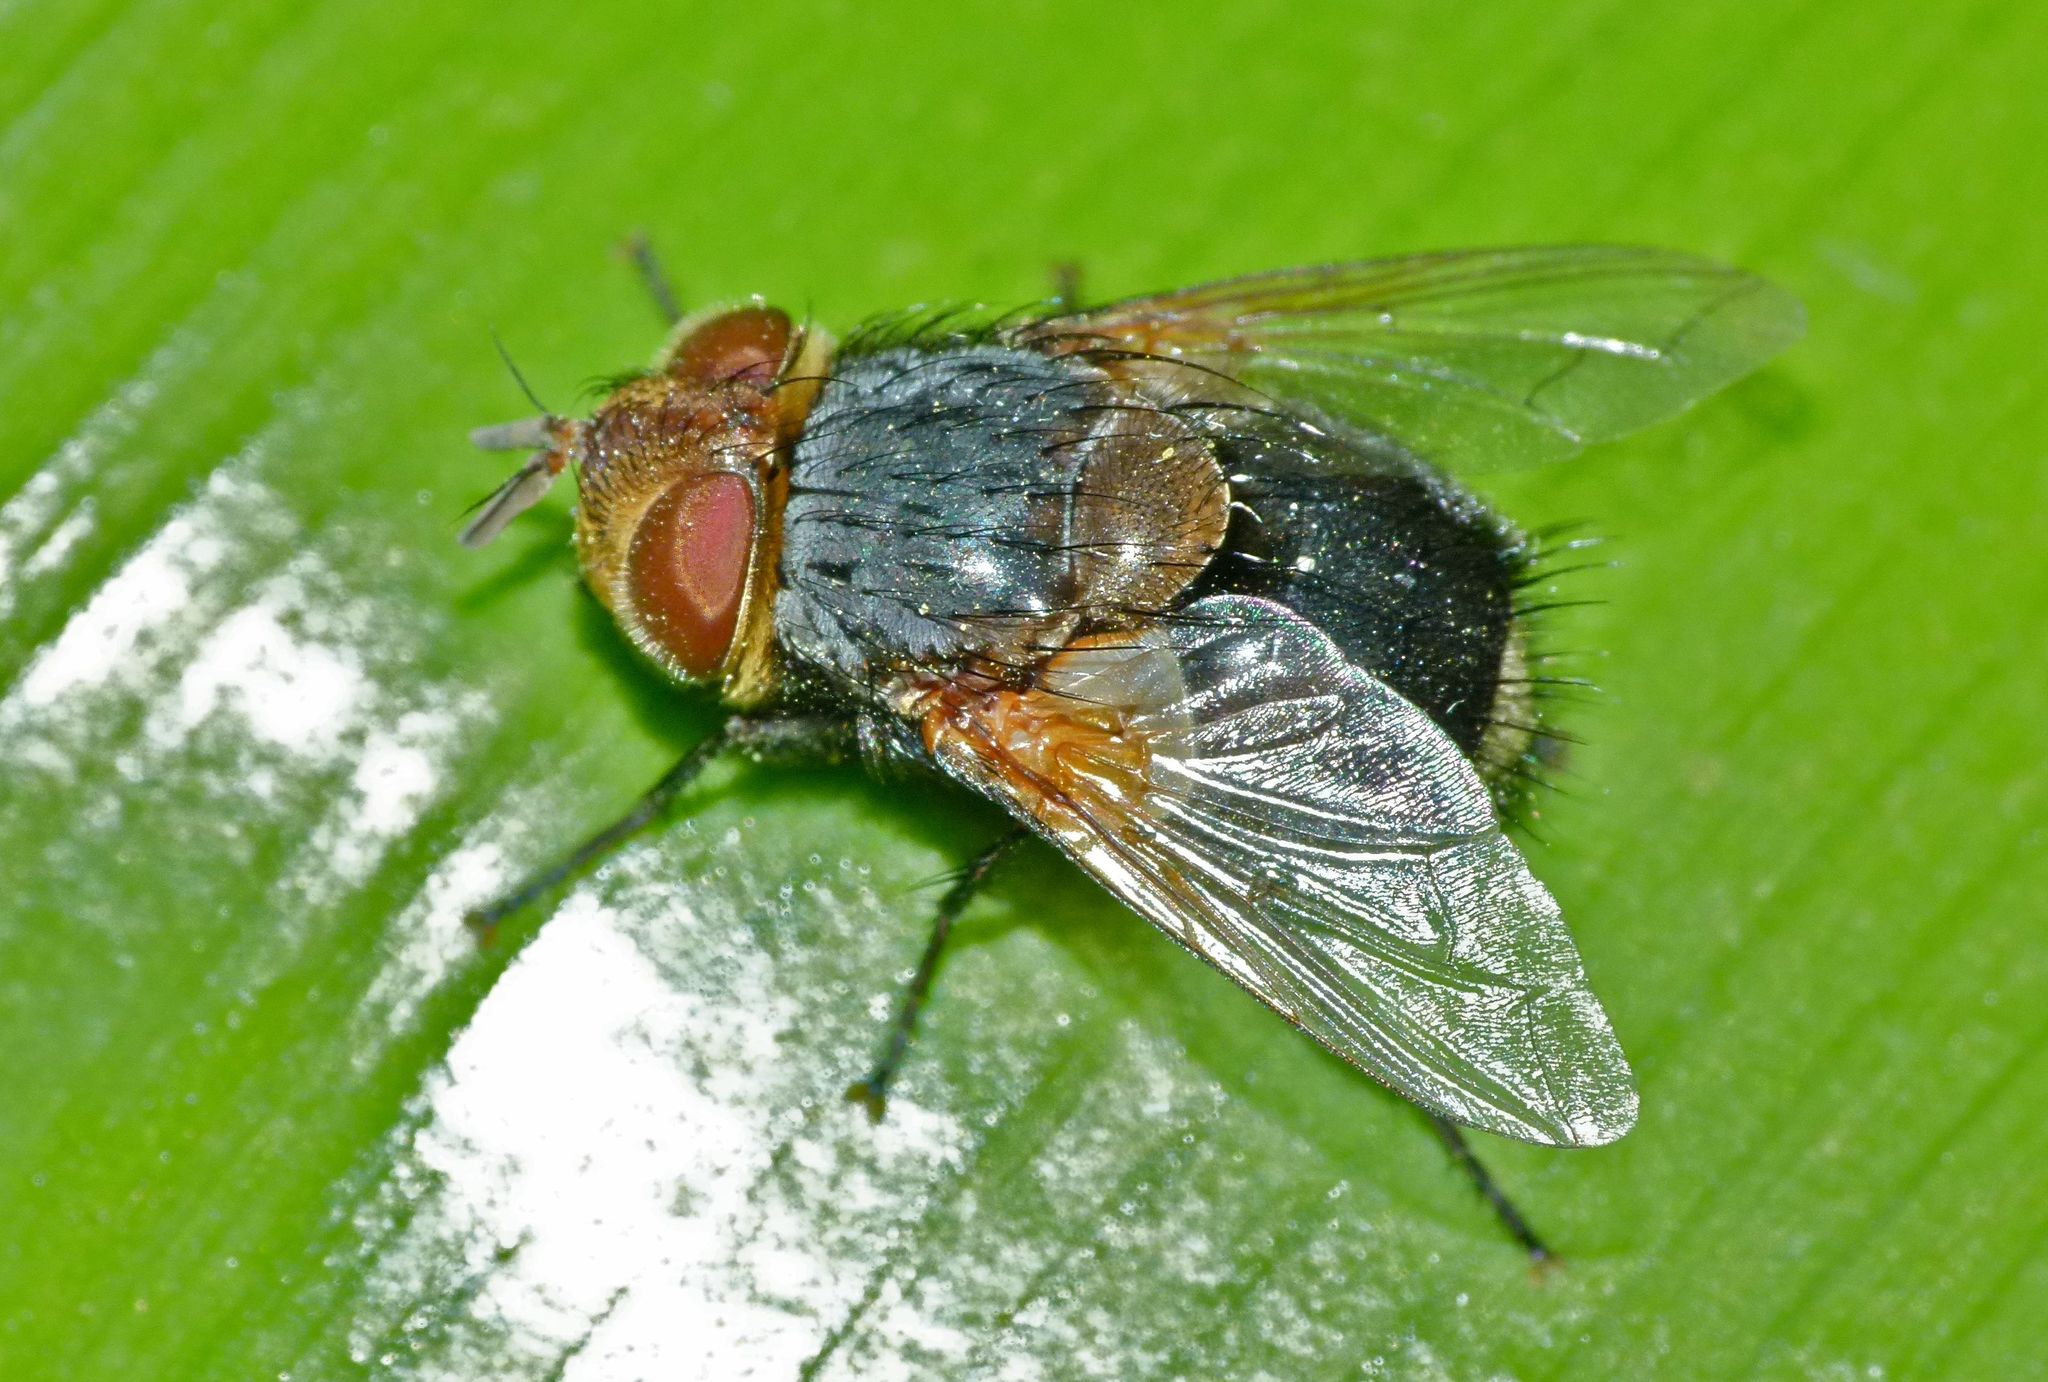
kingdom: Animalia
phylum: Arthropoda
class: Insecta
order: Diptera
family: Tachinidae
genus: Eurygastropsis
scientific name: Eurygastropsis tasmaniae
